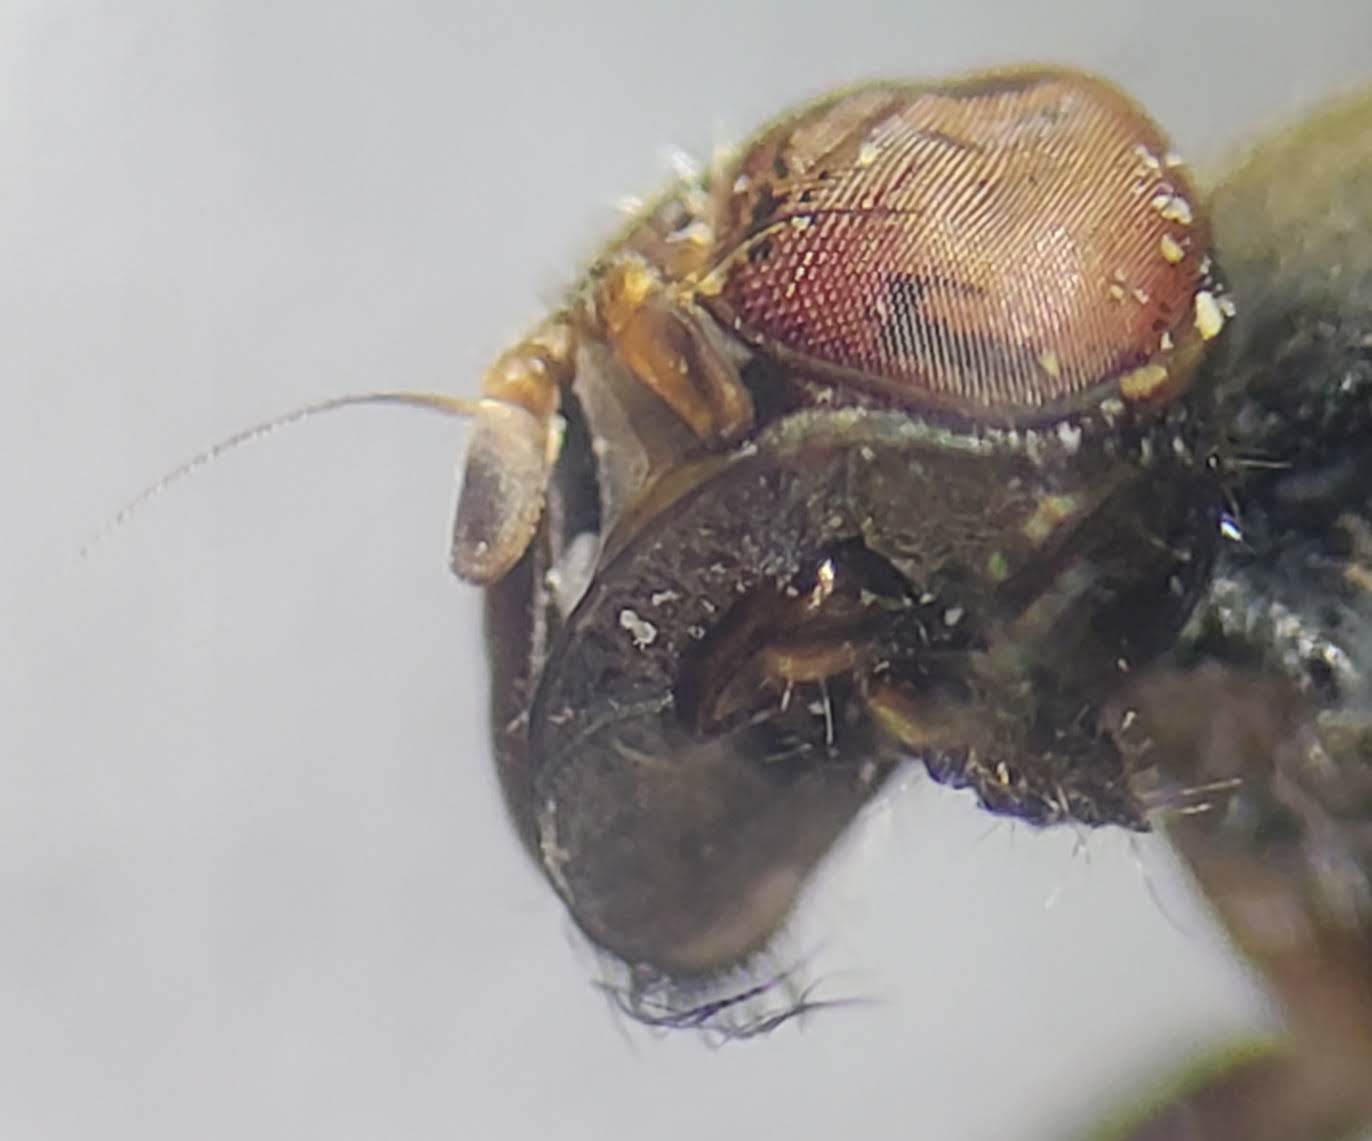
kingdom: Animalia
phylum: Arthropoda
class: Insecta
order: Diptera
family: Platystomatidae
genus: Pogonortalis
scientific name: Pogonortalis doclea
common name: Boatman fly
